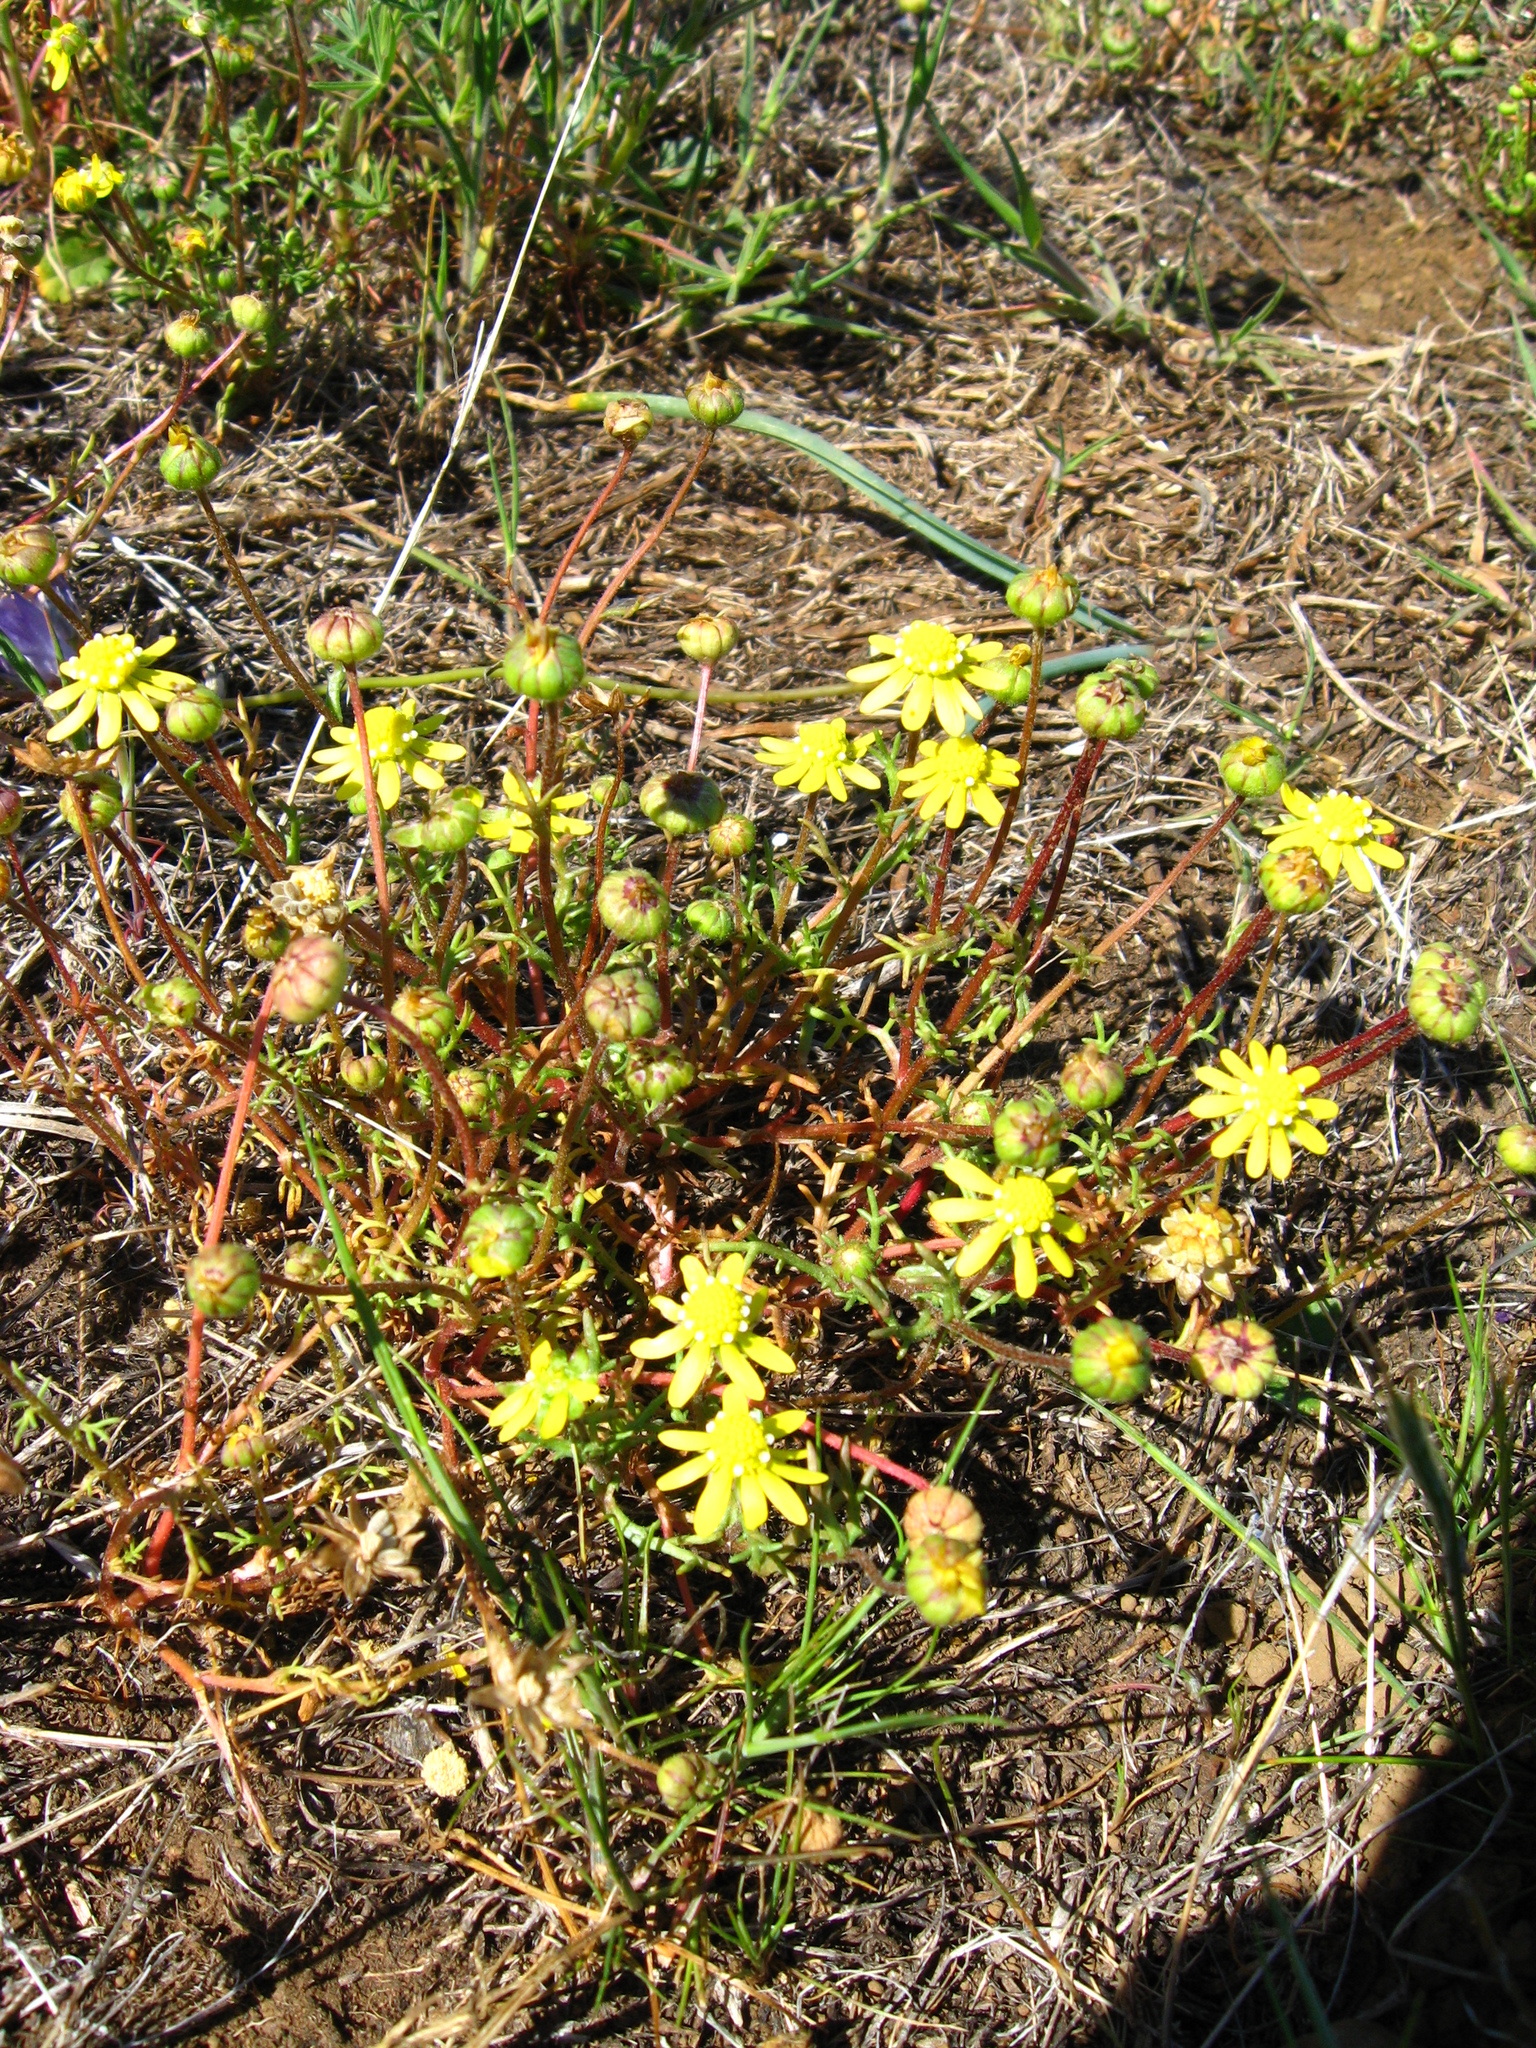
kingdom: Plantae
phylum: Tracheophyta
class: Magnoliopsida
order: Asterales
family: Asteraceae
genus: Blennosperma
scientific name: Blennosperma nanum
